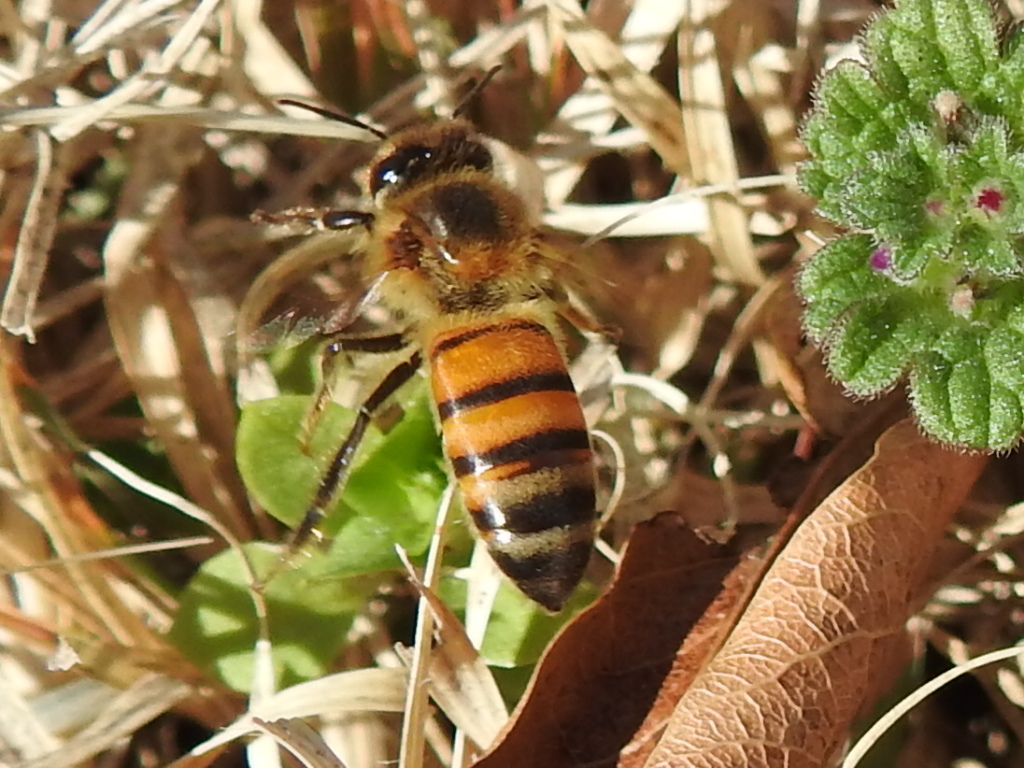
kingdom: Animalia
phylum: Arthropoda
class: Insecta
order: Hymenoptera
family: Apidae
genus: Apis
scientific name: Apis mellifera
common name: Honey bee
